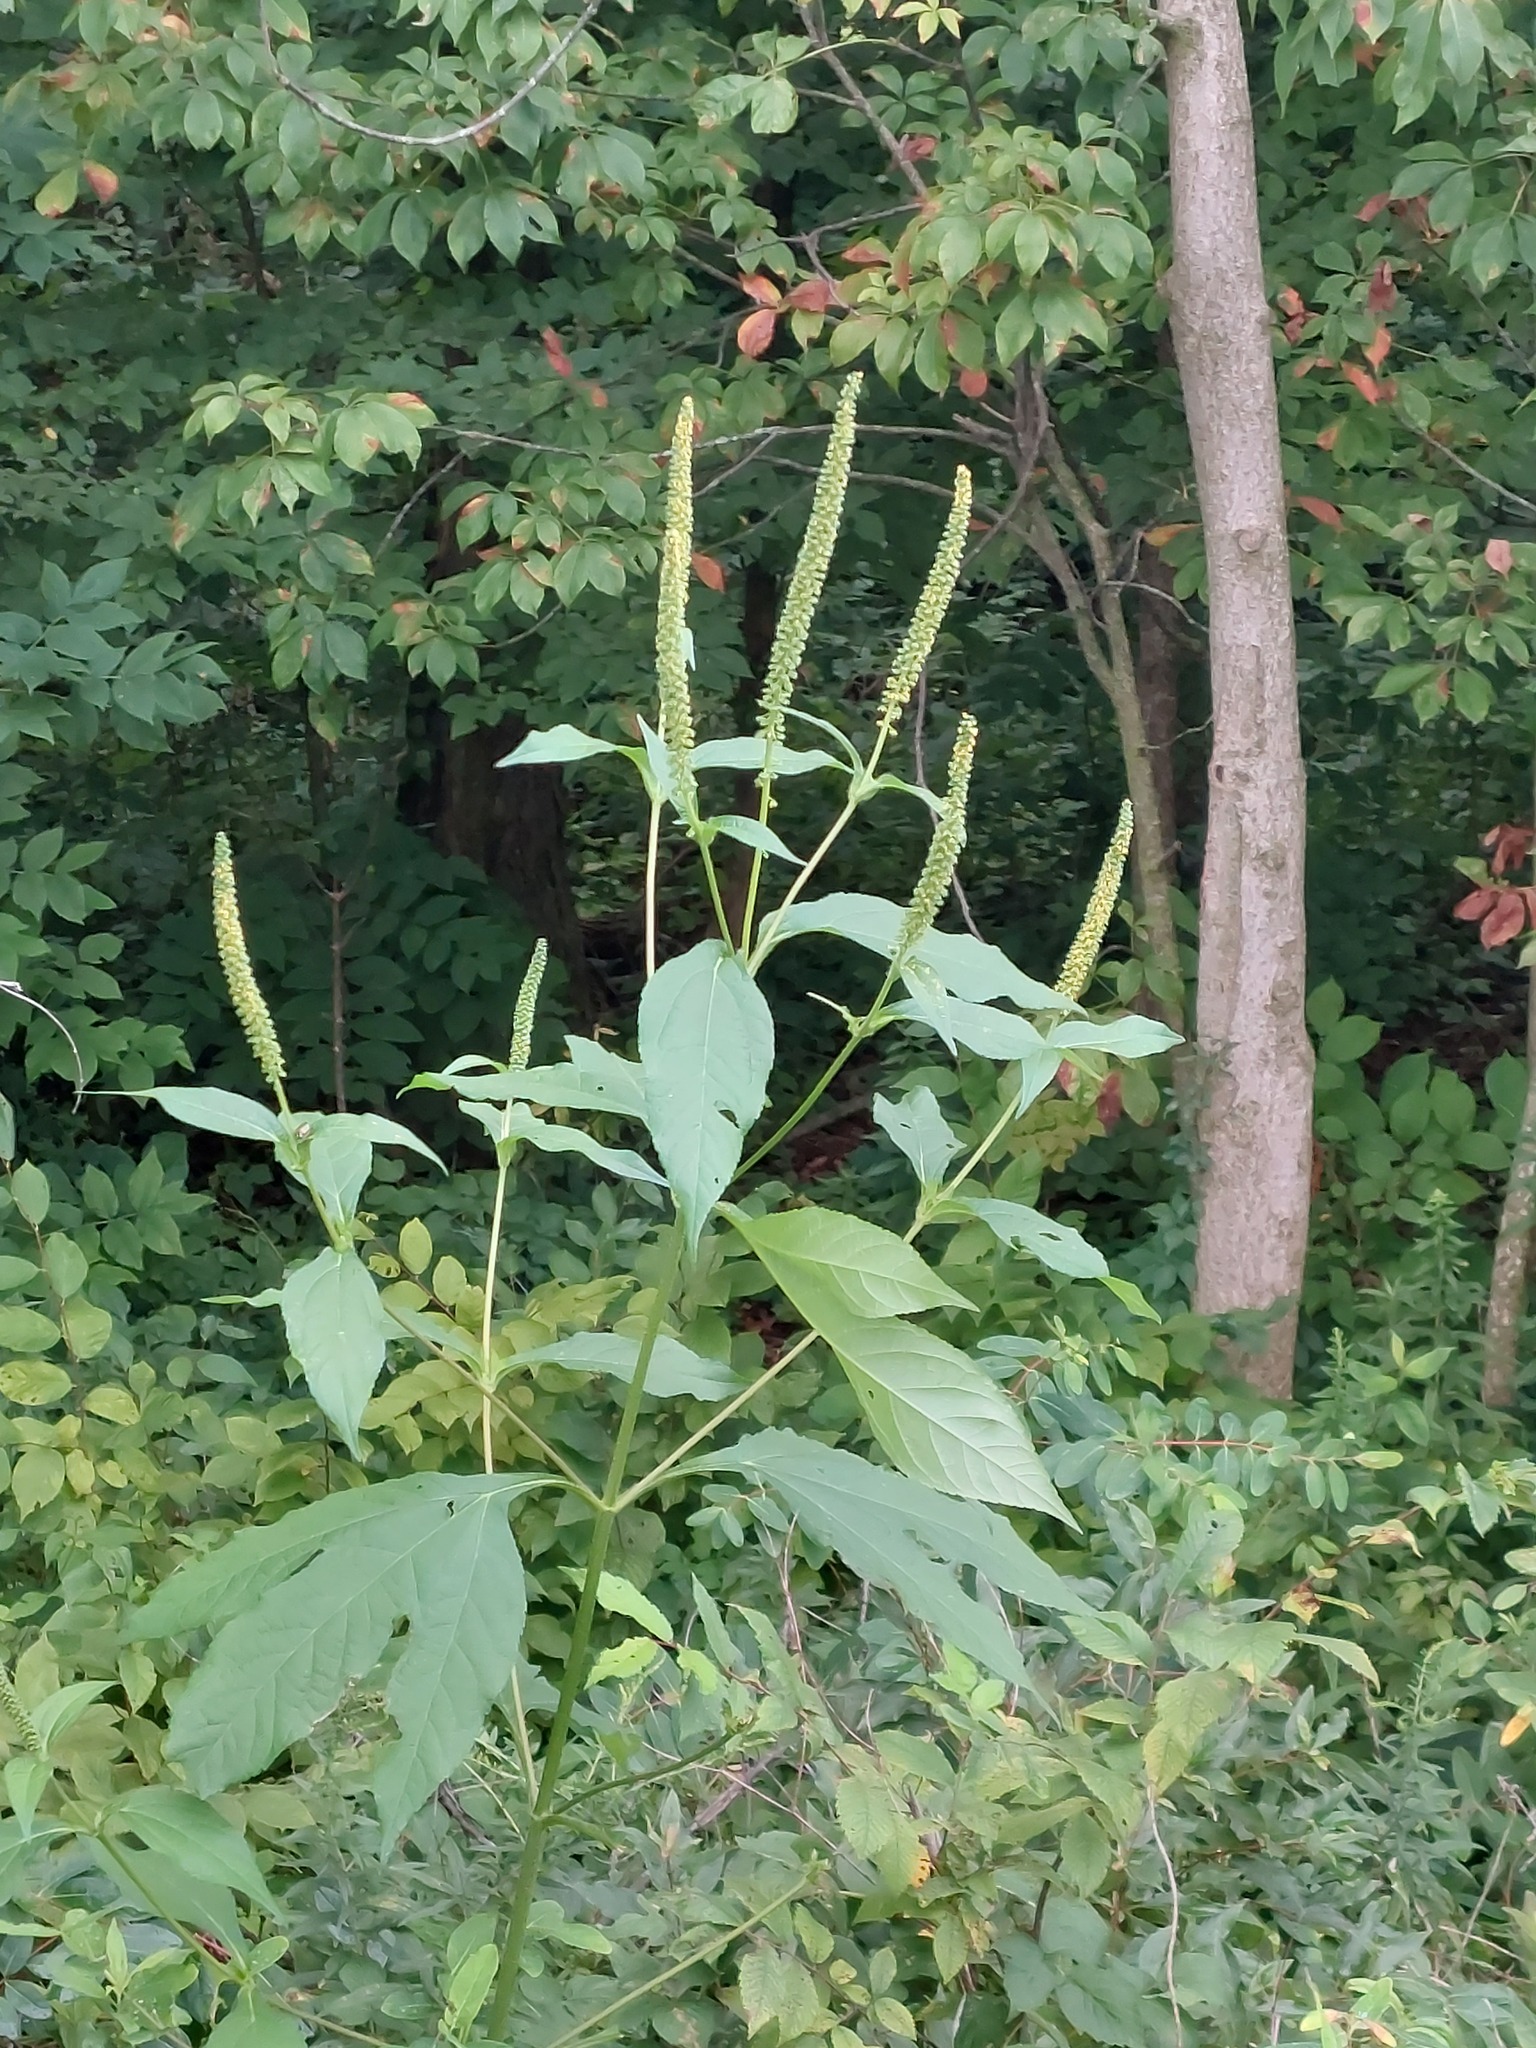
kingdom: Plantae
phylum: Tracheophyta
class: Magnoliopsida
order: Asterales
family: Asteraceae
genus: Ambrosia
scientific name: Ambrosia trifida
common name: Giant ragweed
